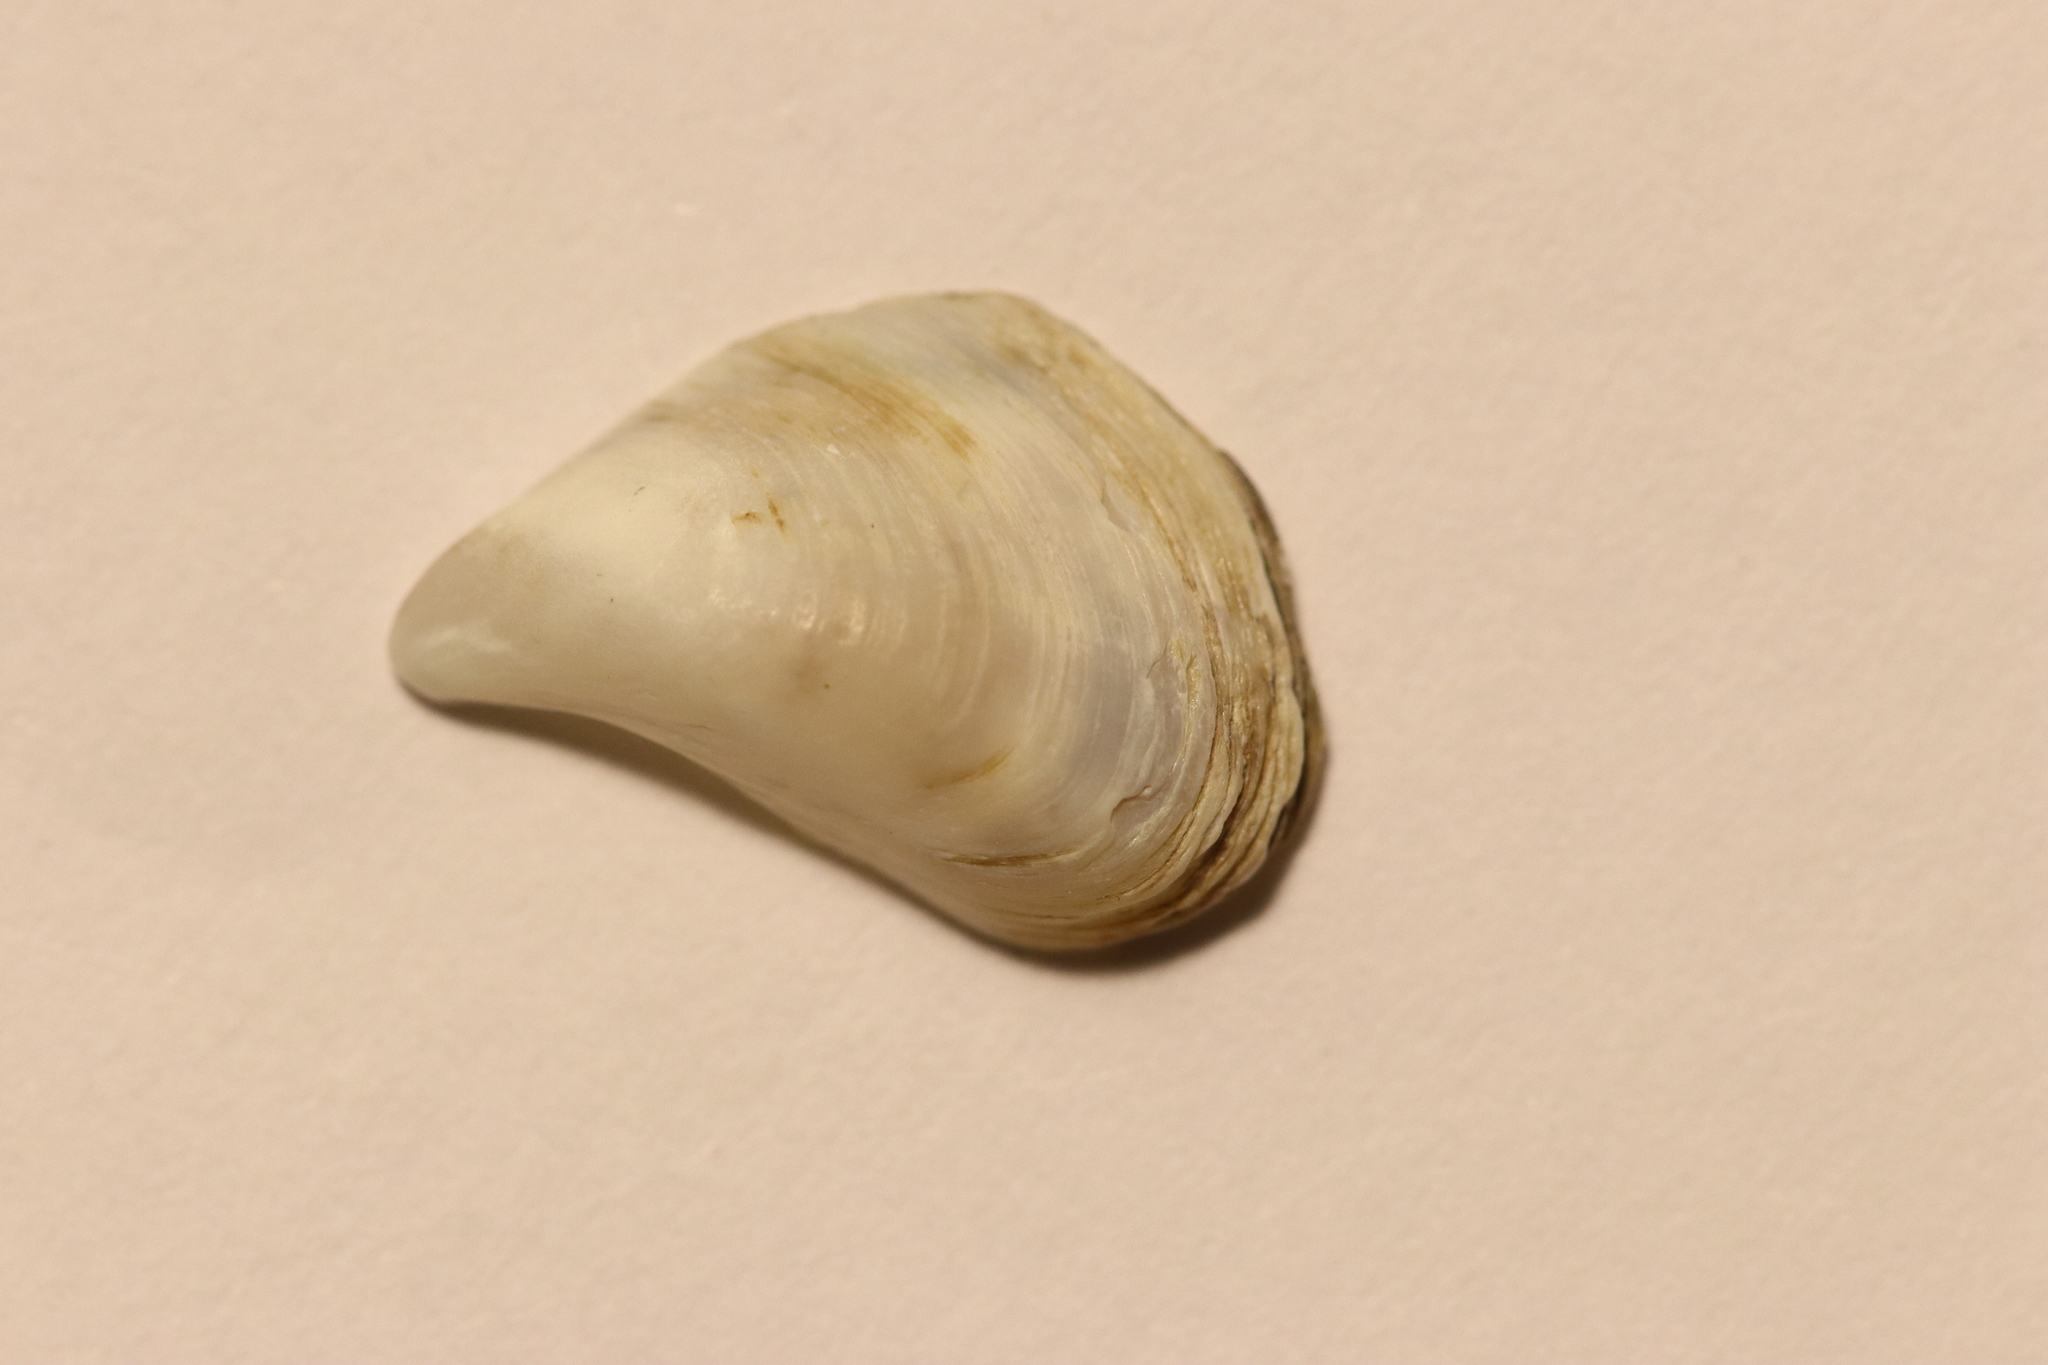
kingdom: Animalia
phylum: Mollusca
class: Bivalvia
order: Myida
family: Dreissenidae
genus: Dreissena
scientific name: Dreissena bugensis
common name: Quagga mussel
